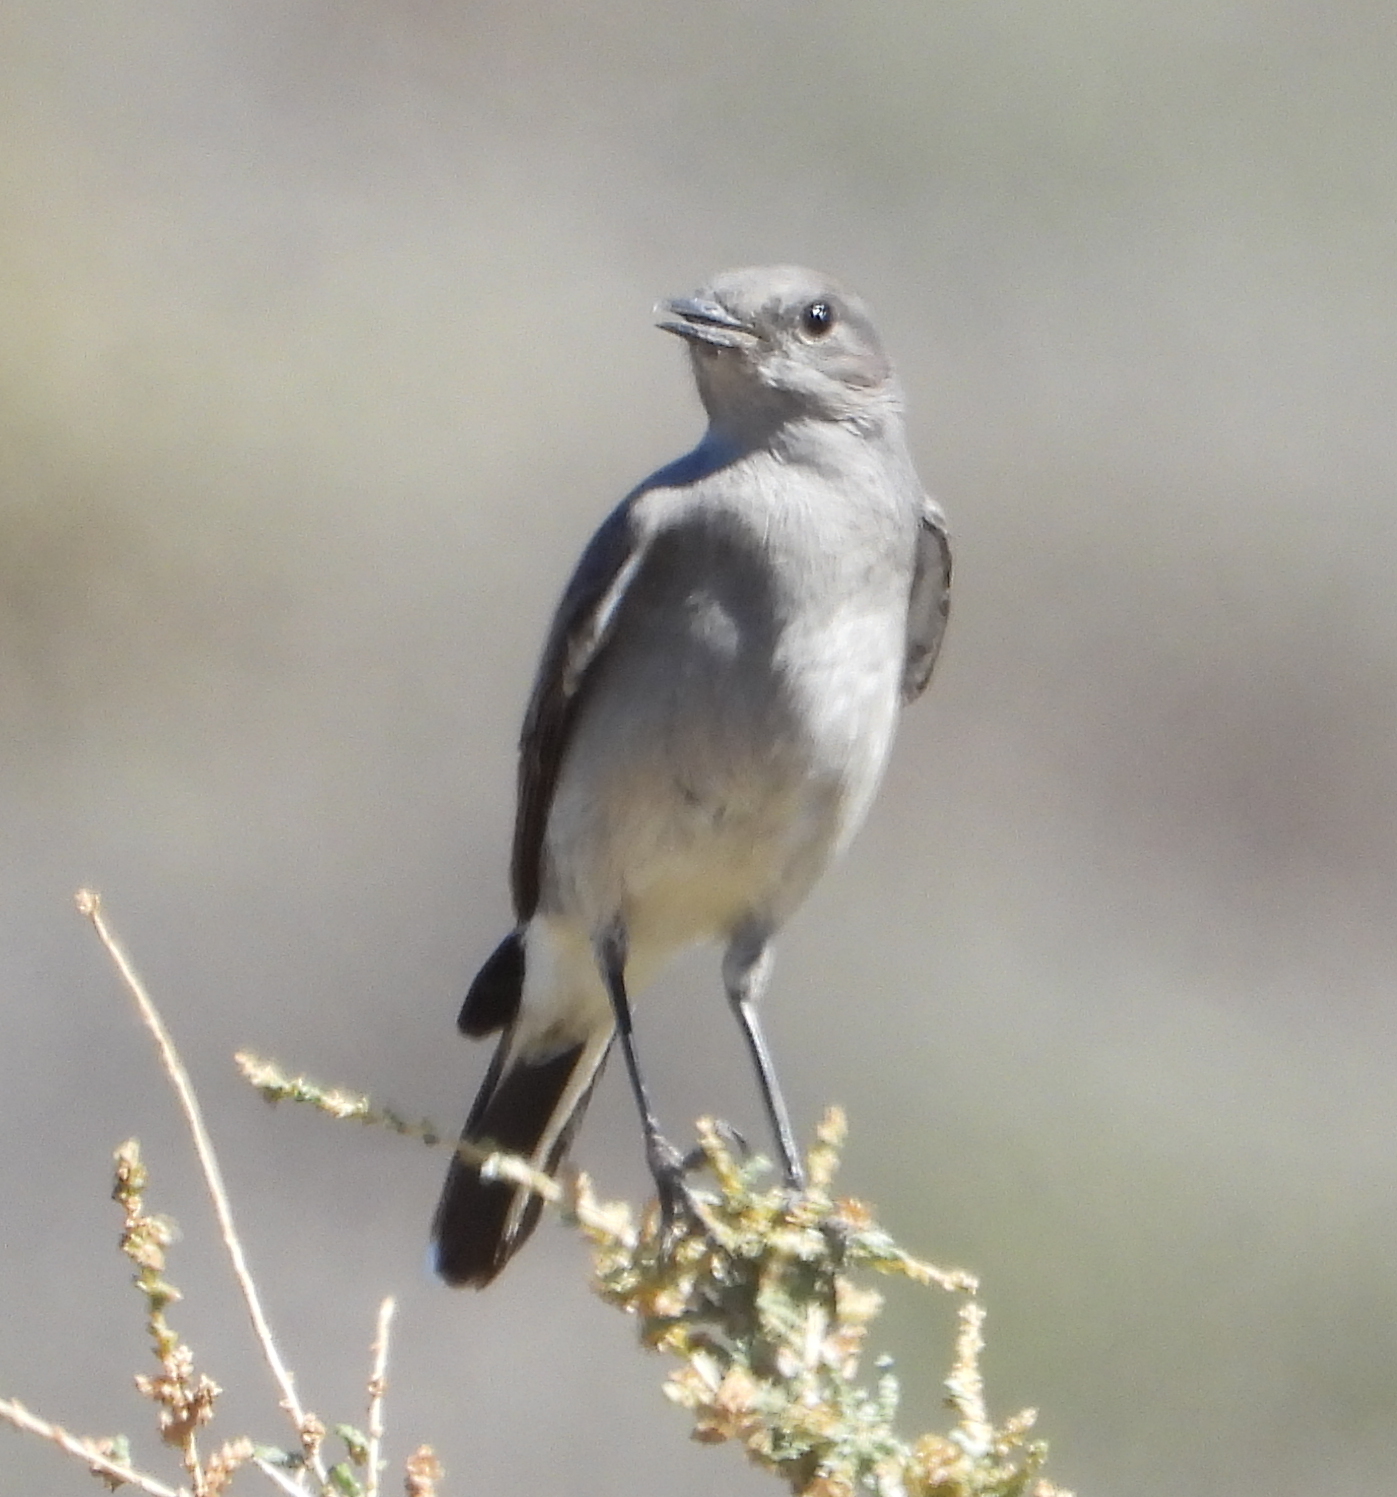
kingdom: Animalia
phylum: Chordata
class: Aves
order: Passeriformes
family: Muscicapidae
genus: Emarginata
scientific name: Emarginata schlegelii
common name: Karoo chat
